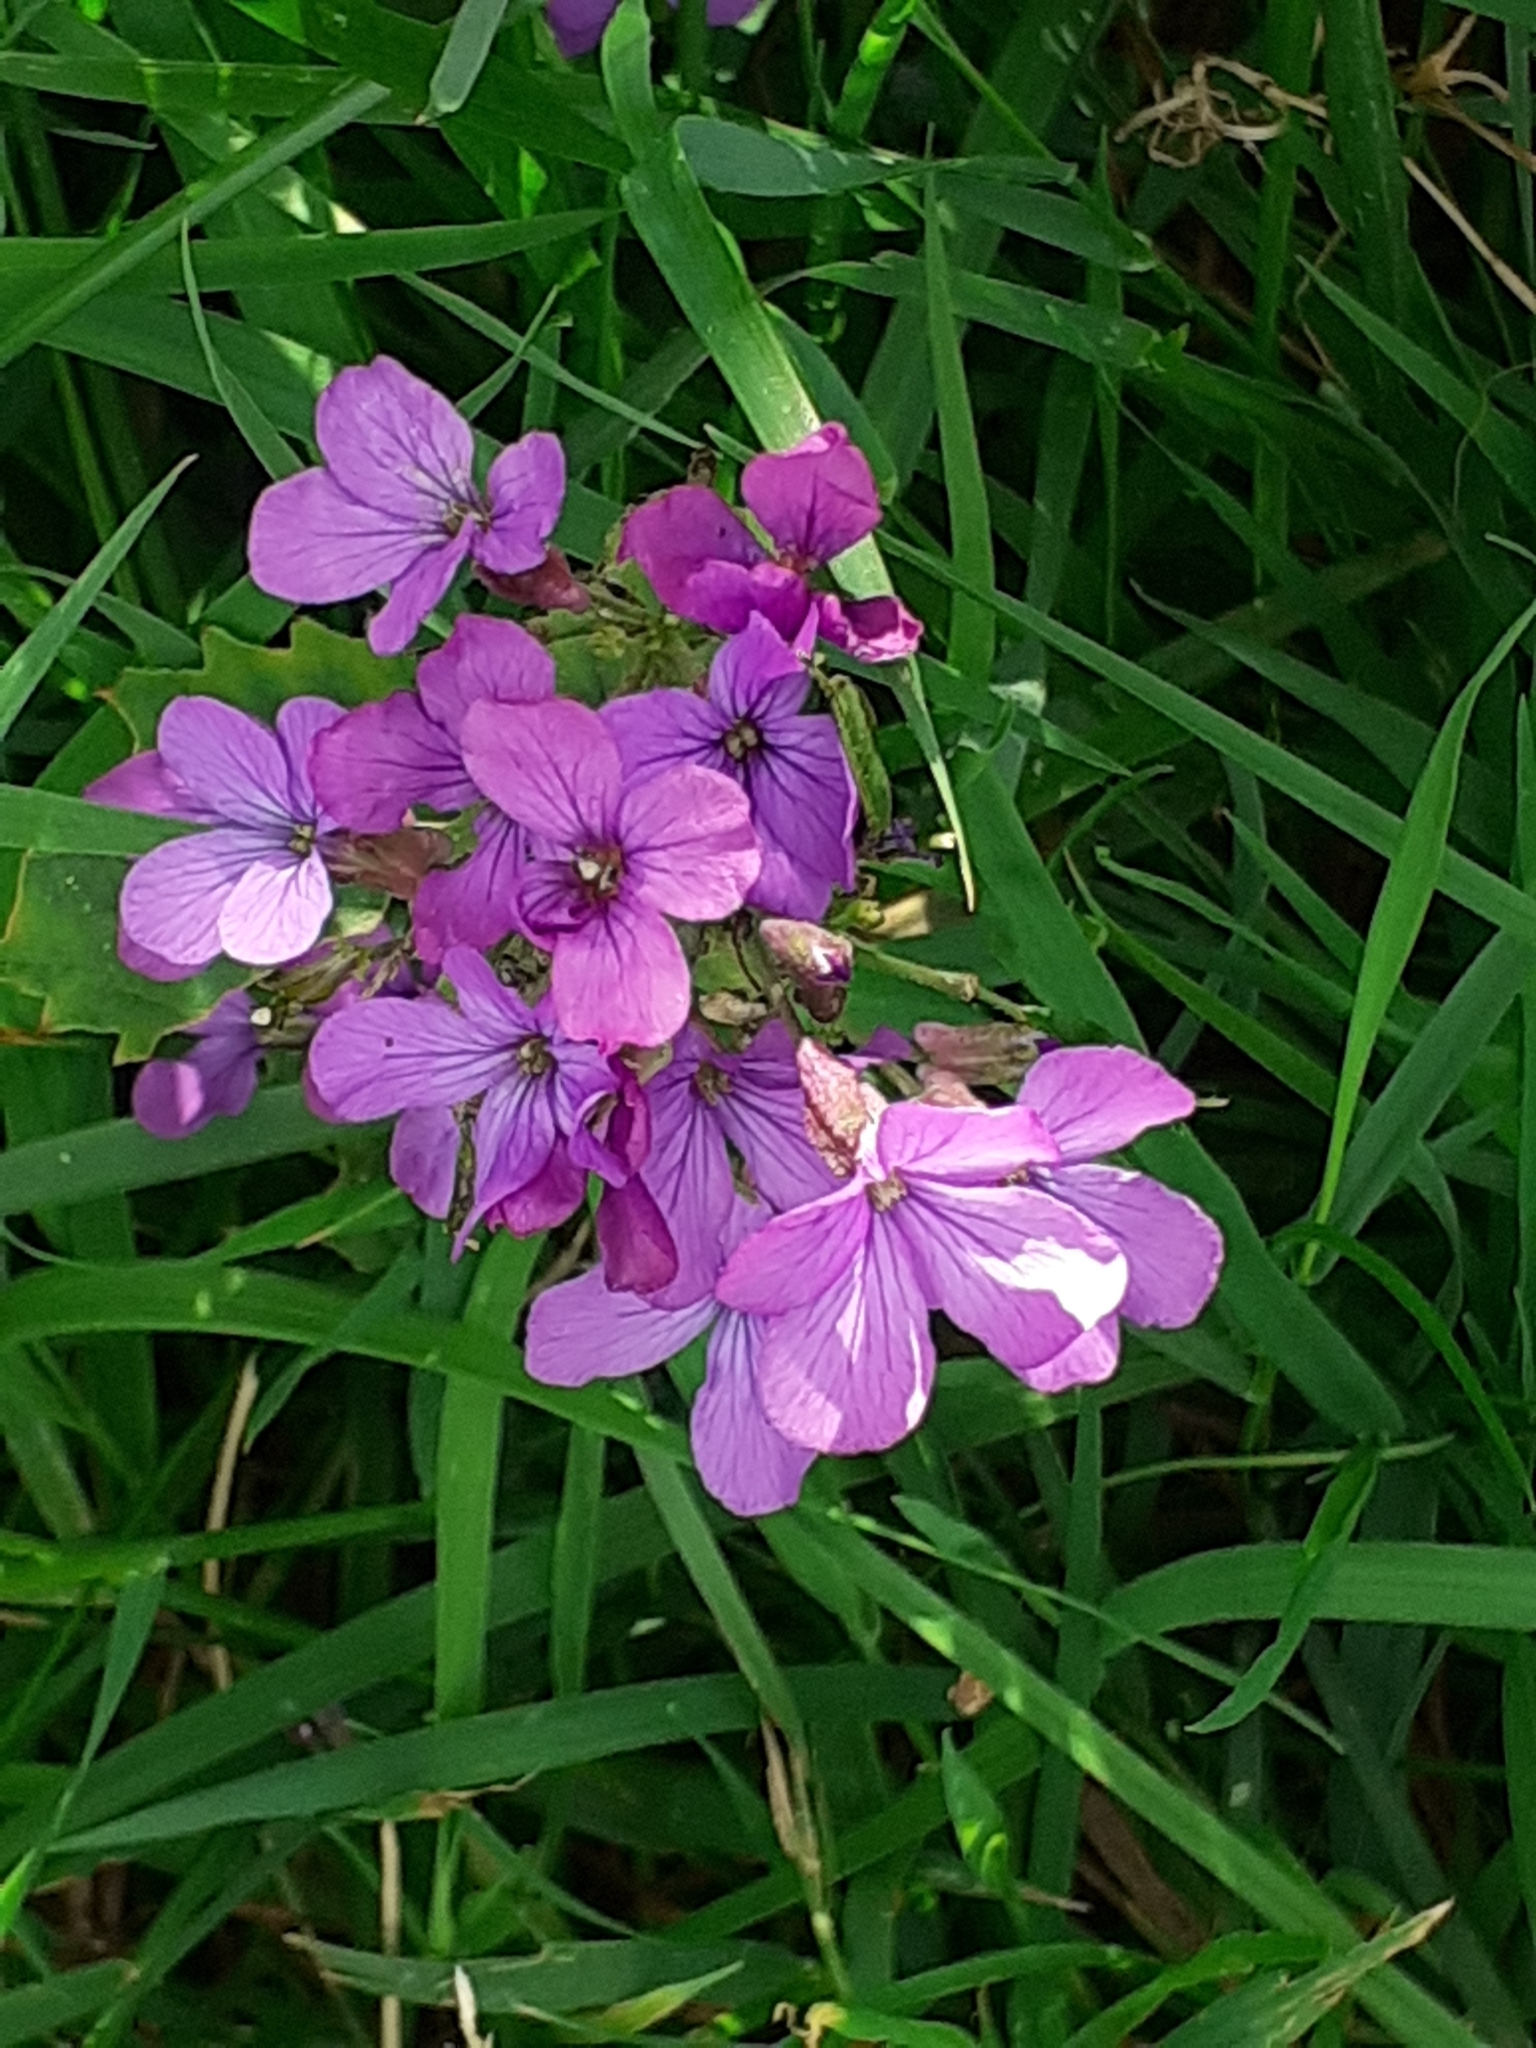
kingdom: Plantae
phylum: Tracheophyta
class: Magnoliopsida
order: Brassicales
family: Brassicaceae
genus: Lunaria
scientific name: Lunaria annua
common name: Honesty
